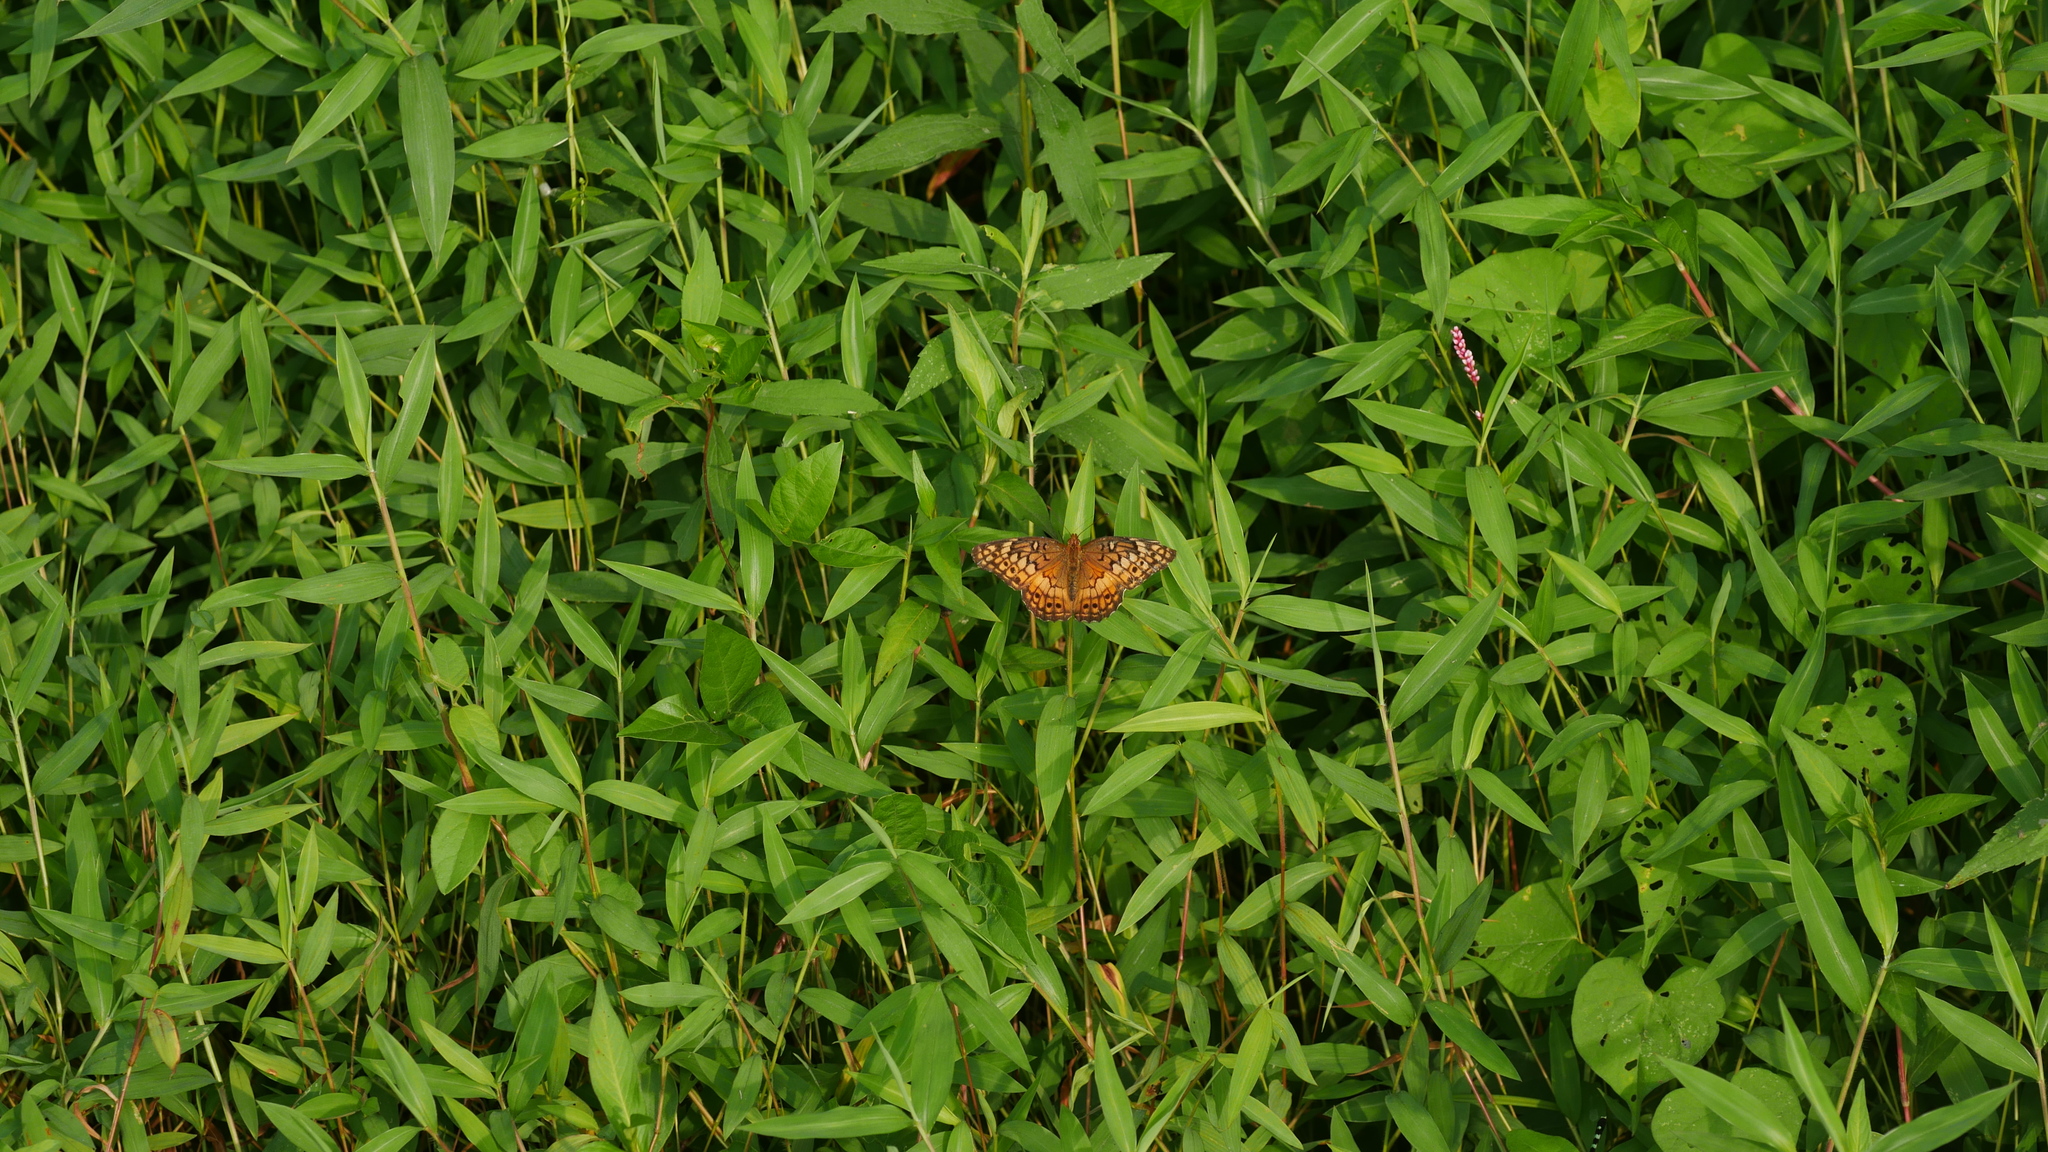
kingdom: Animalia
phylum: Arthropoda
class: Insecta
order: Lepidoptera
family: Nymphalidae
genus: Euptoieta
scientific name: Euptoieta claudia
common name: Variegated fritillary
